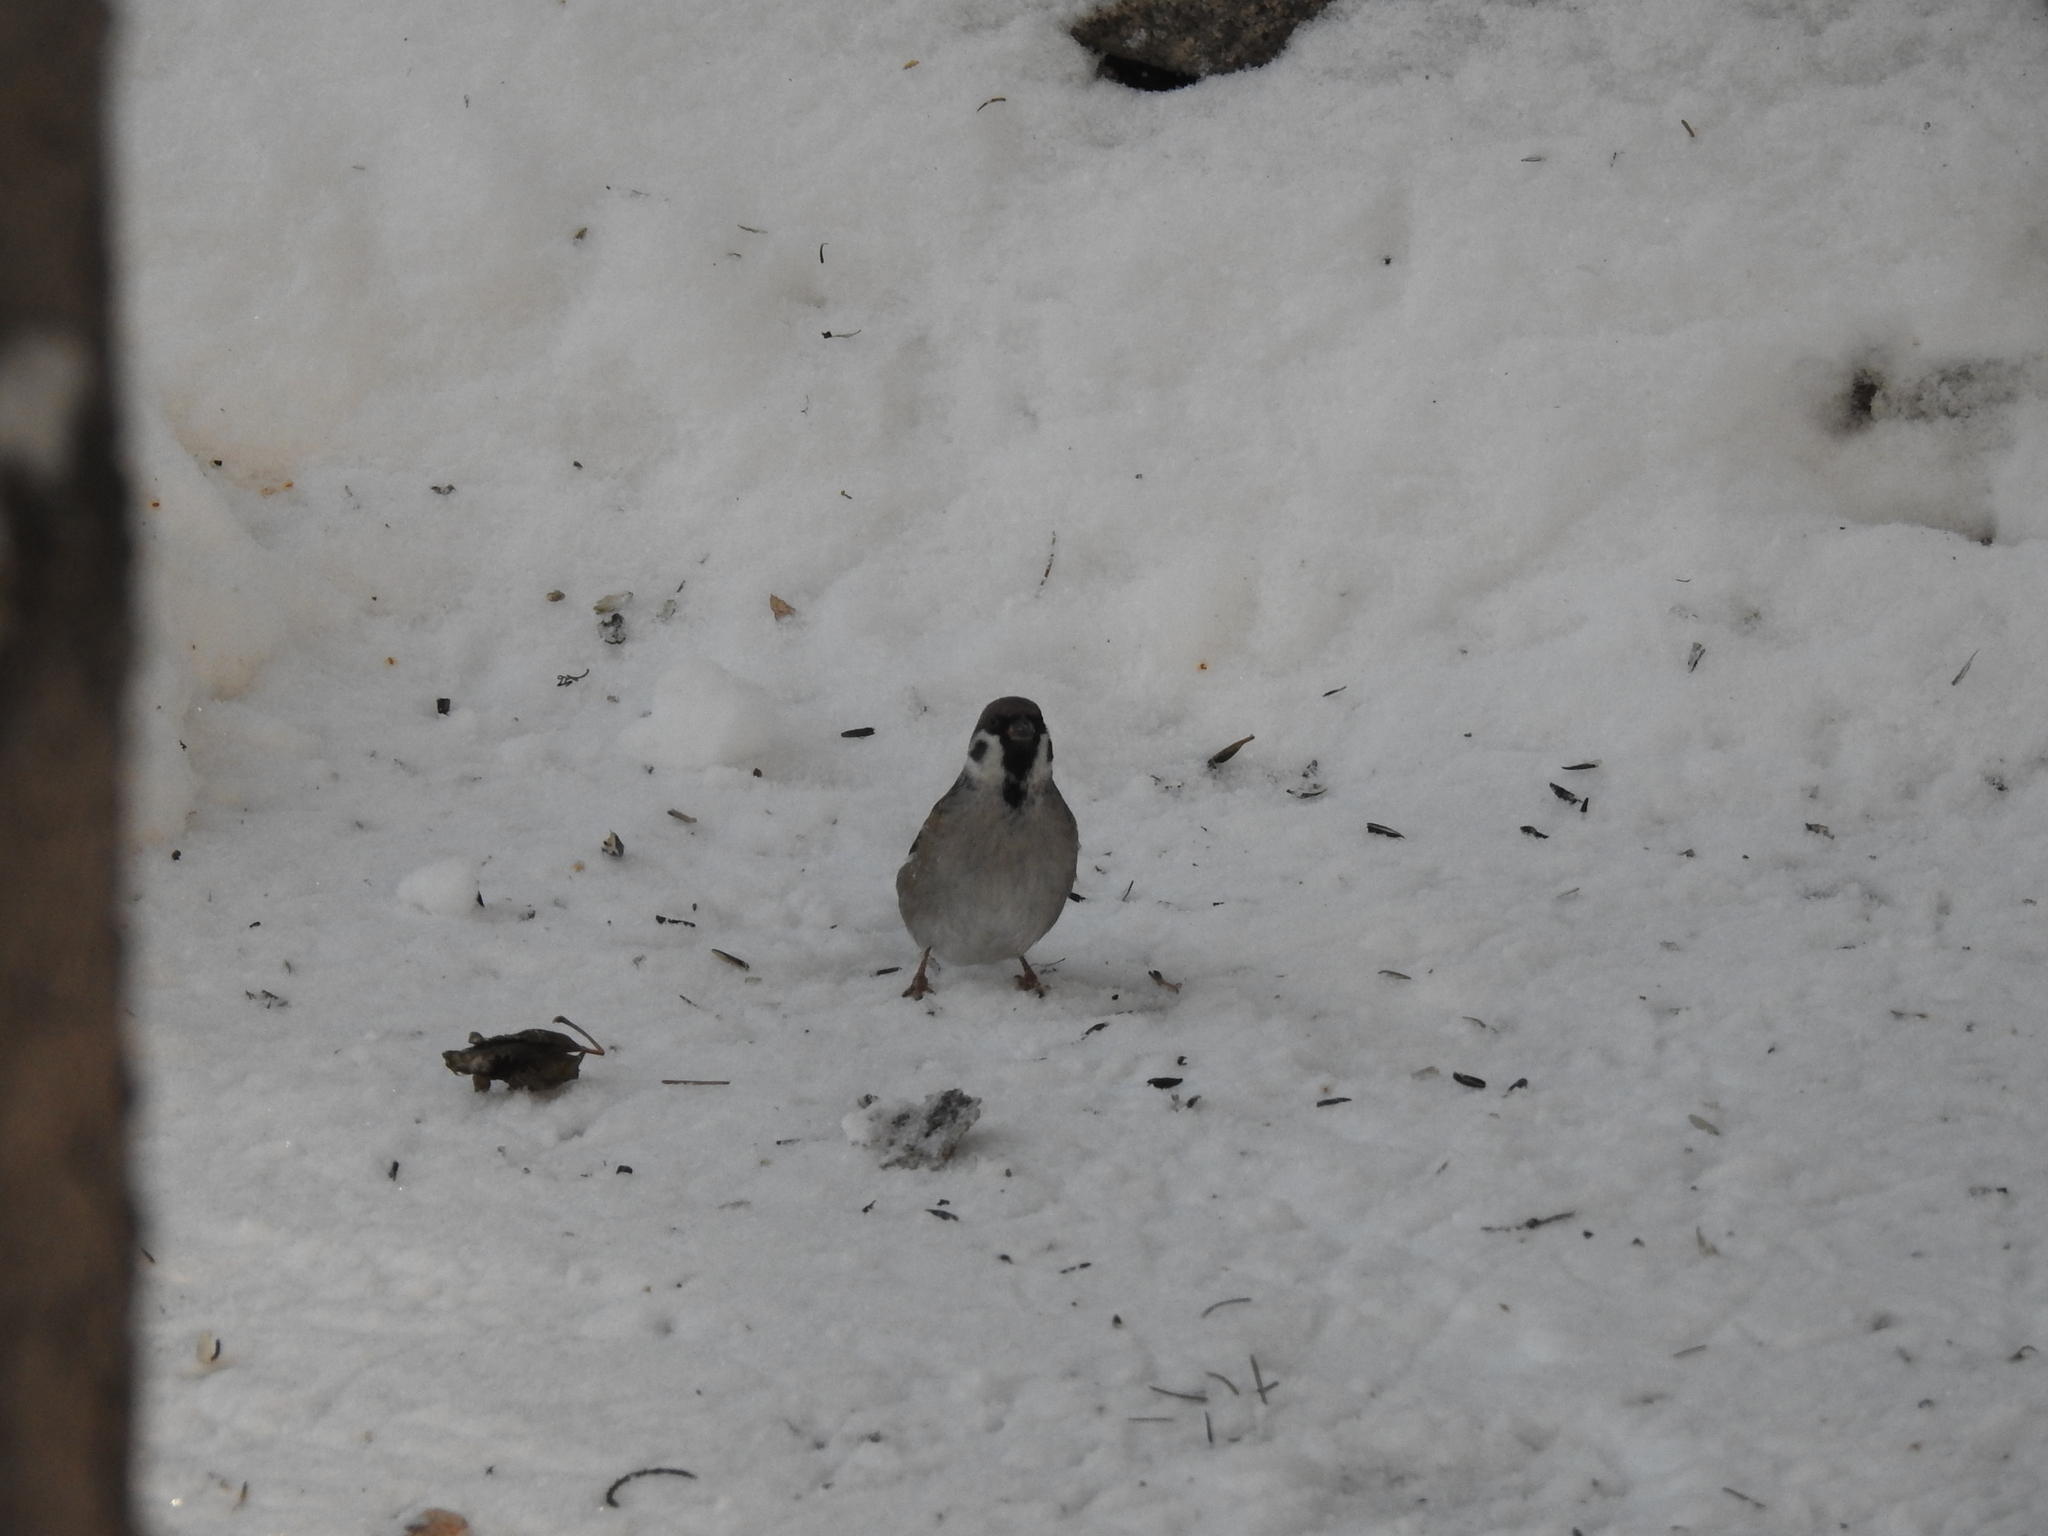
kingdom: Animalia
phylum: Chordata
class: Aves
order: Passeriformes
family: Passeridae
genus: Passer
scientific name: Passer montanus
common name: Eurasian tree sparrow
